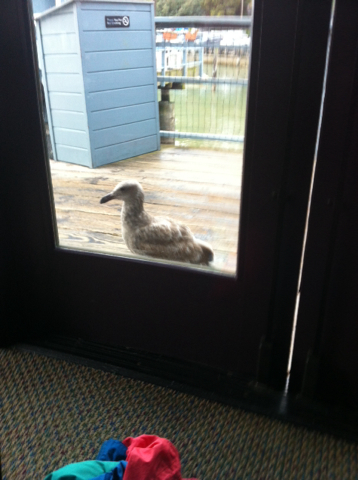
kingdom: Animalia
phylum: Chordata
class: Aves
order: Charadriiformes
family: Laridae
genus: Larus
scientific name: Larus occidentalis
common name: Western gull
